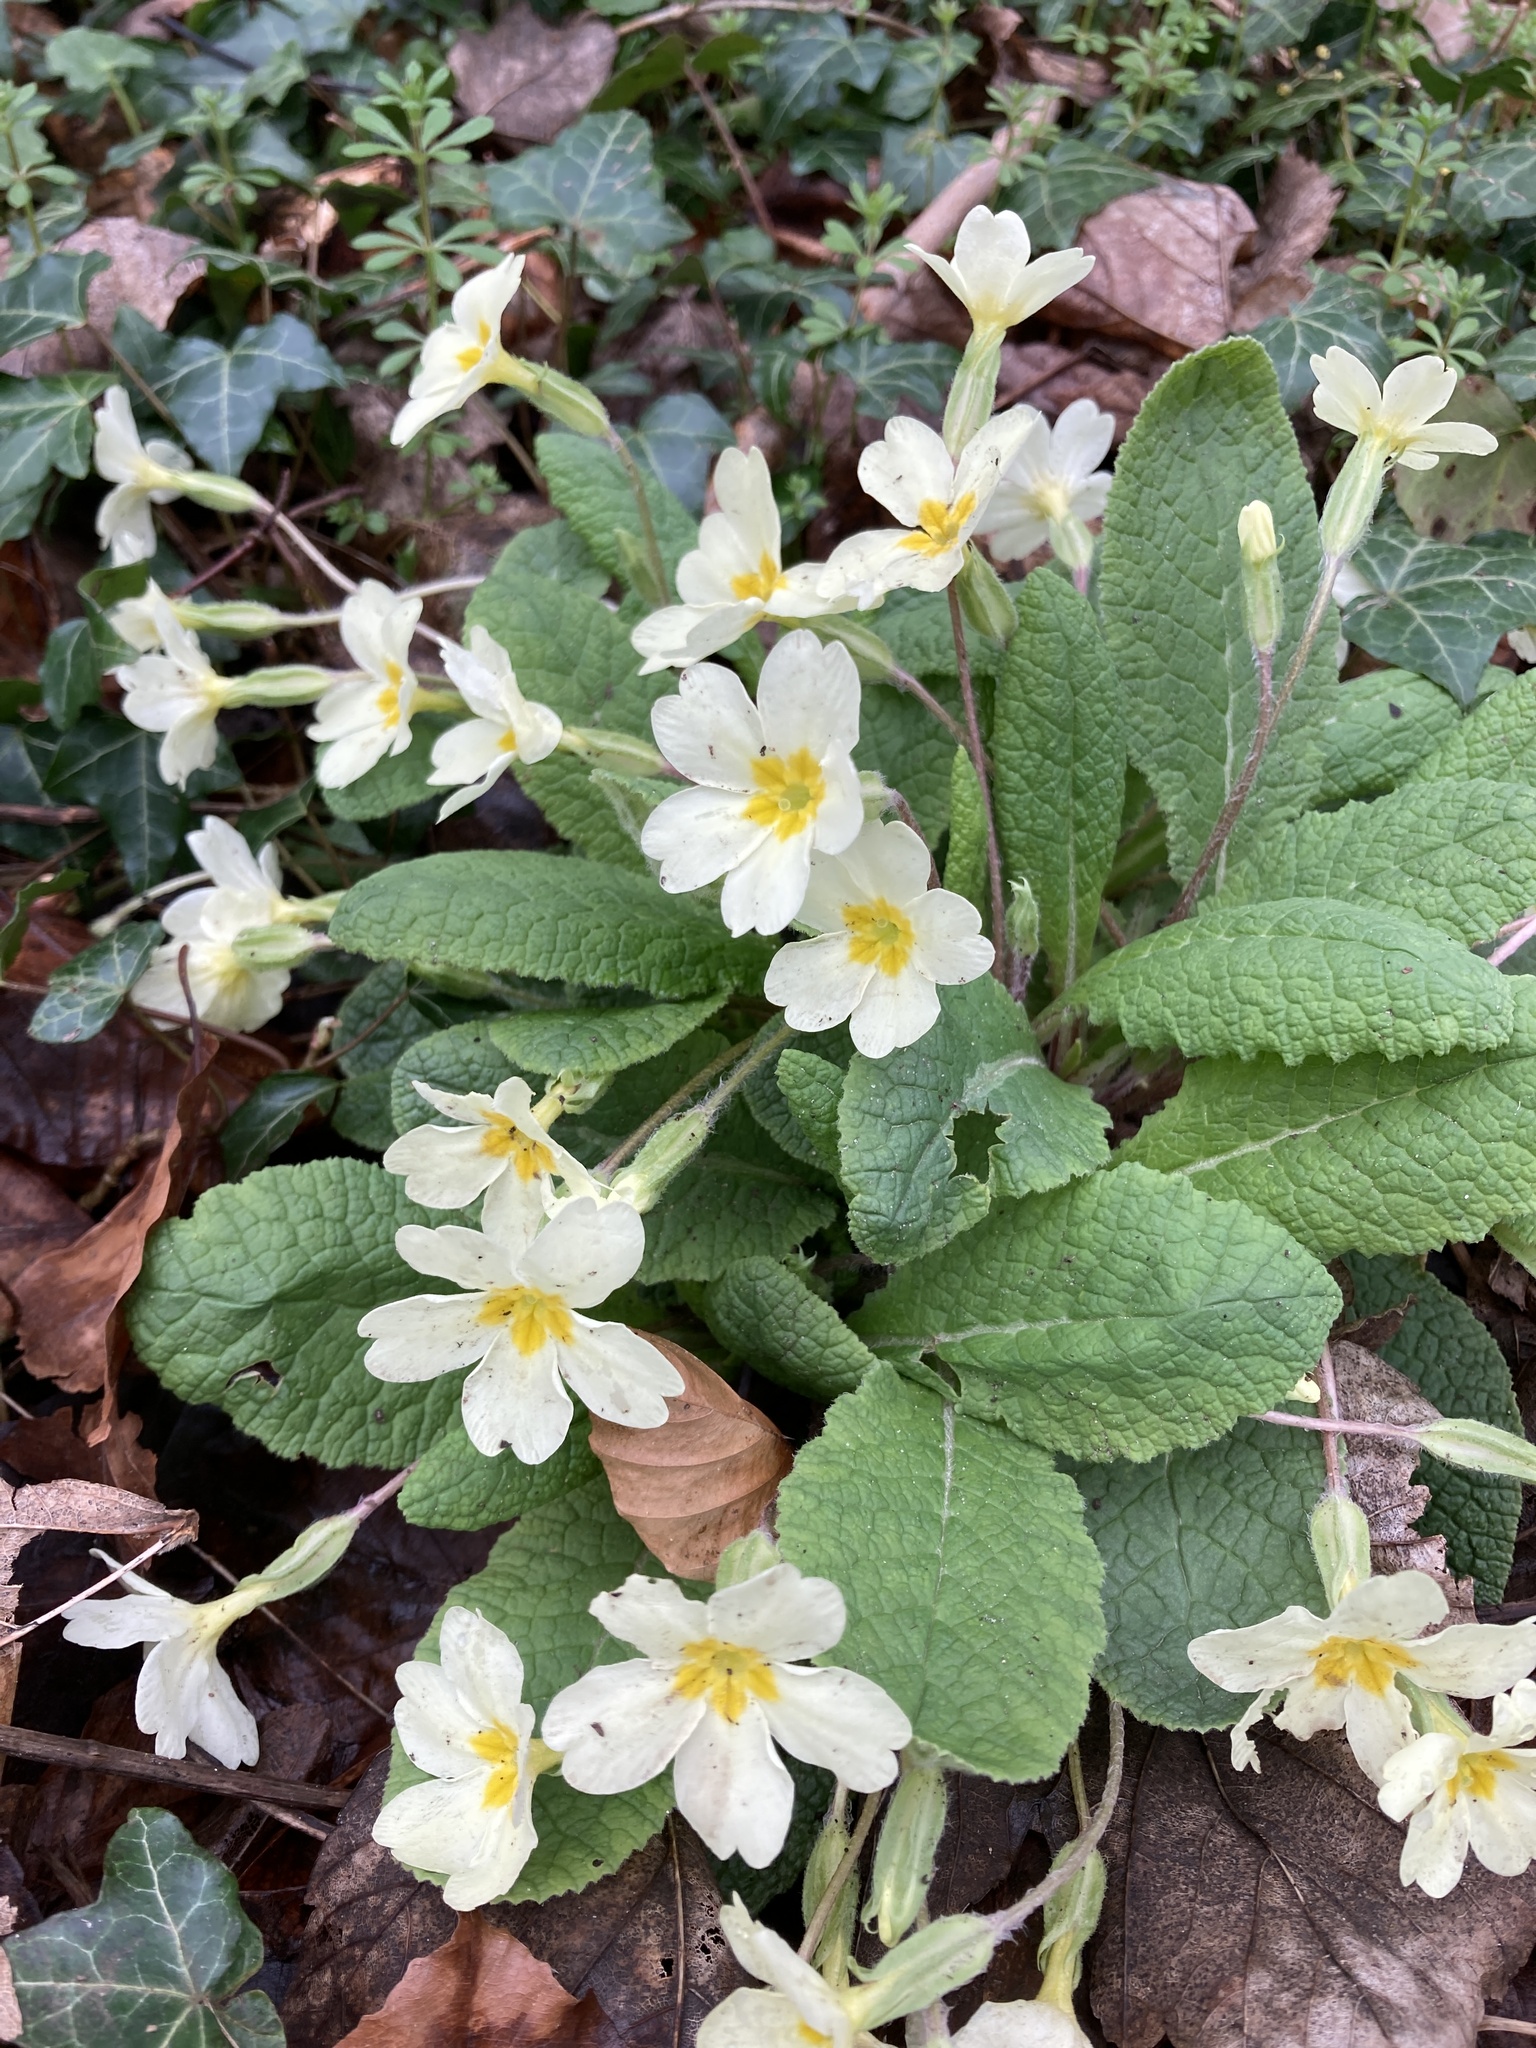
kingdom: Plantae
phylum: Tracheophyta
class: Magnoliopsida
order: Ericales
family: Primulaceae
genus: Primula
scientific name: Primula vulgaris
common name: Primrose
